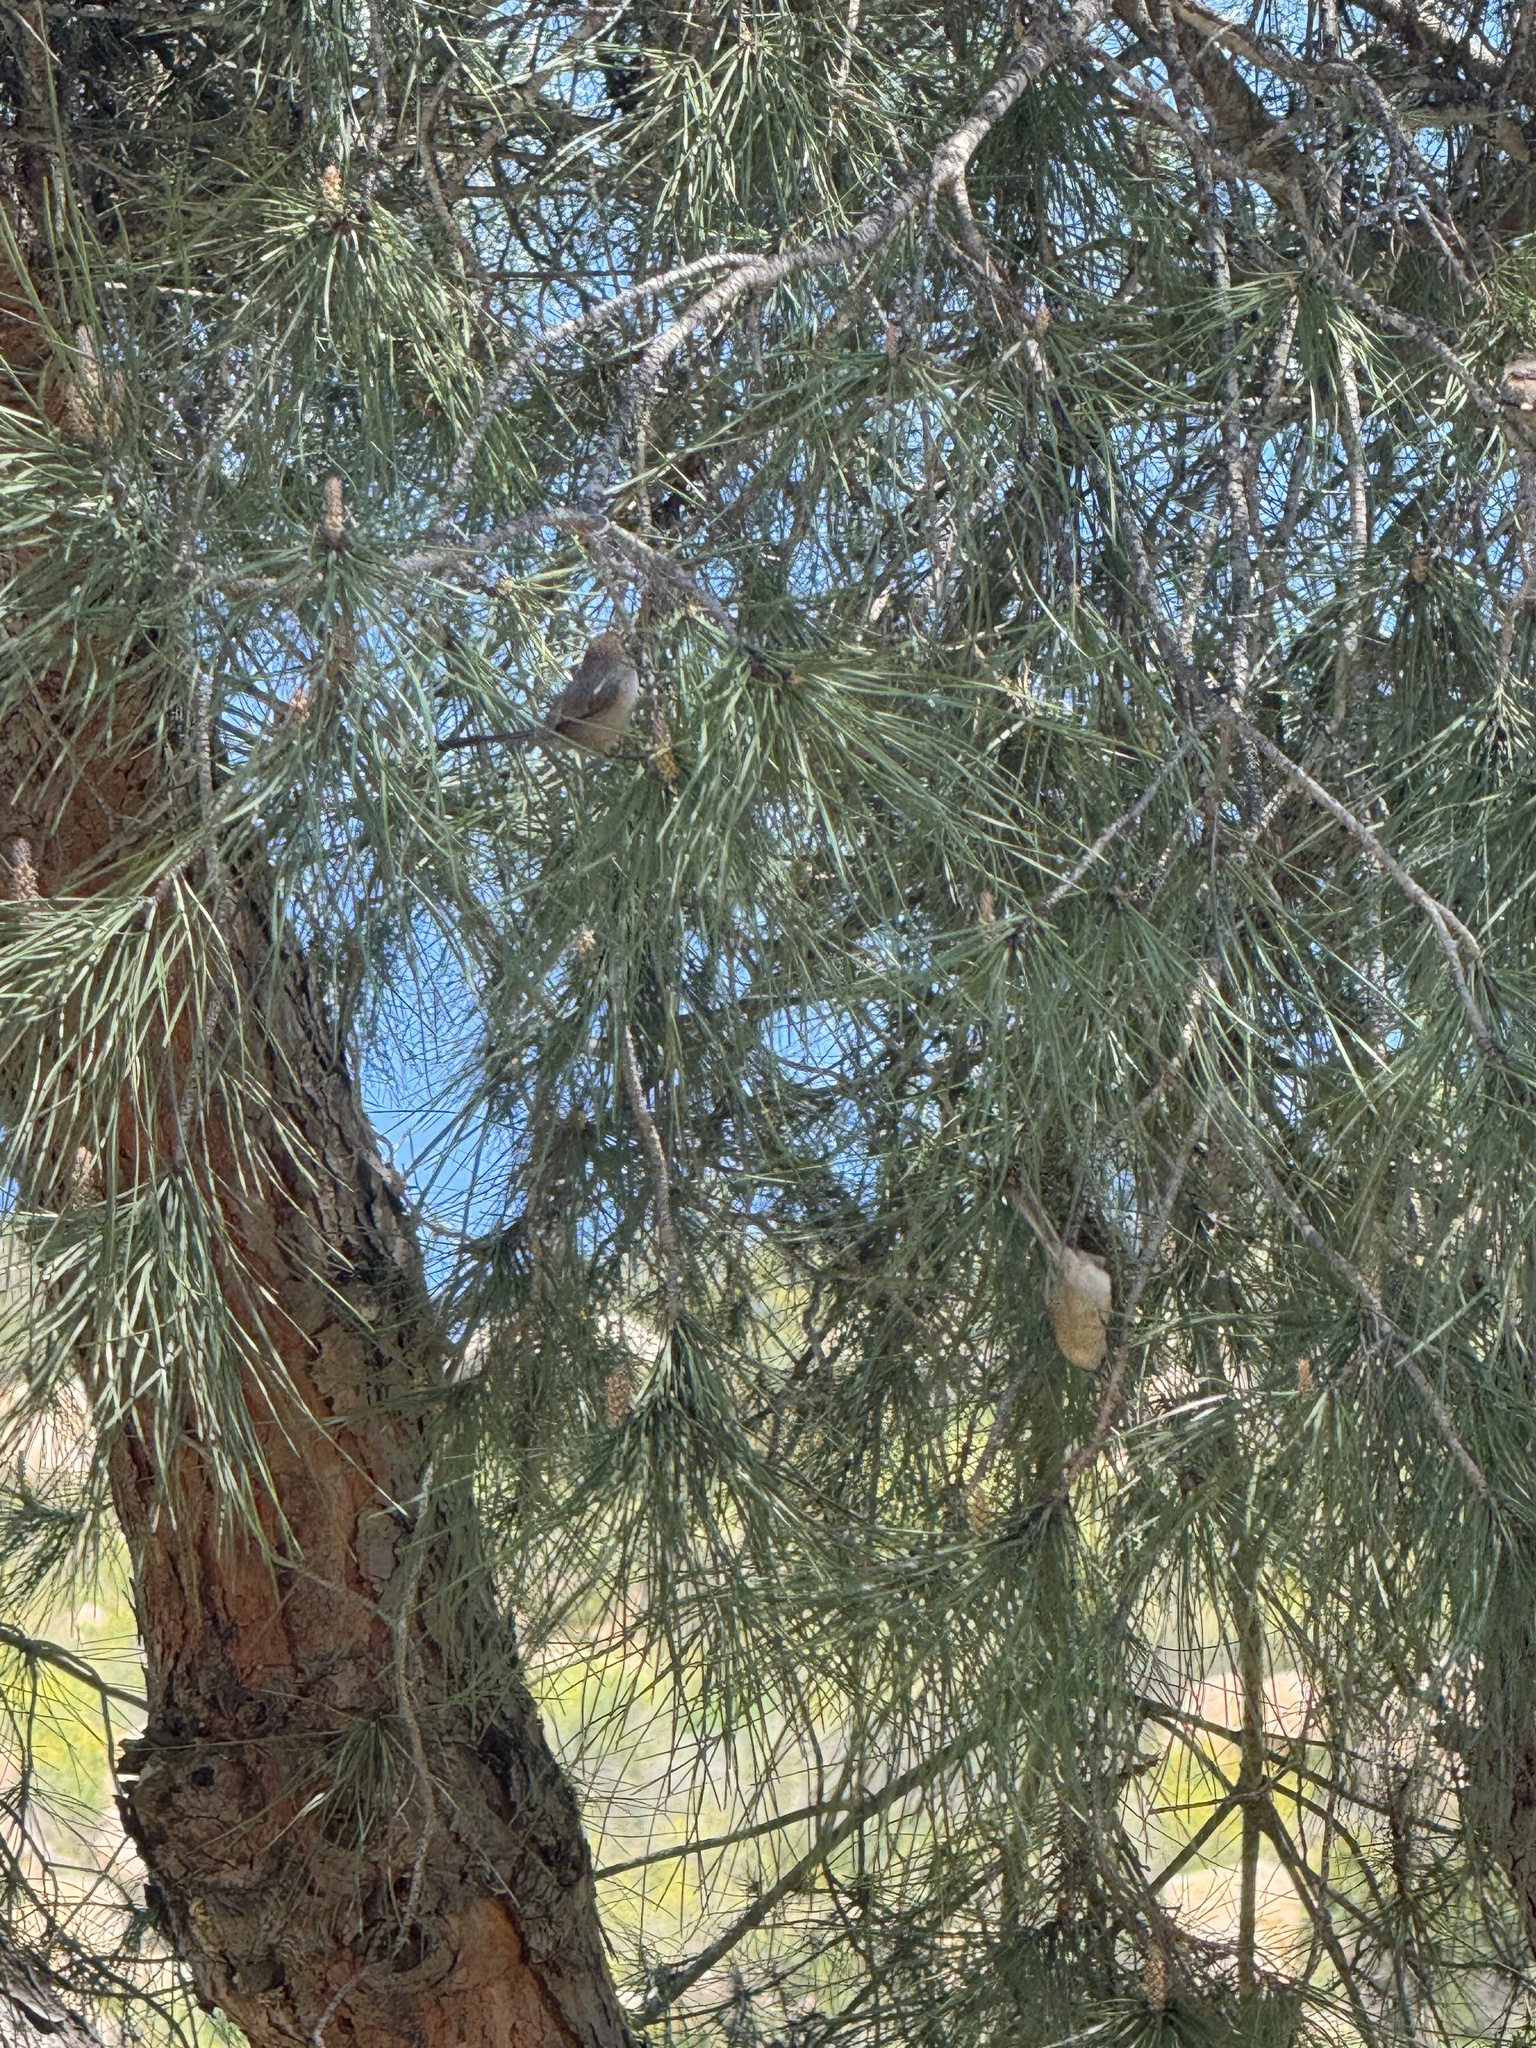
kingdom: Animalia
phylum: Chordata
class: Aves
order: Passeriformes
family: Aegithalidae
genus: Psaltriparus
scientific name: Psaltriparus minimus
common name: American bushtit
